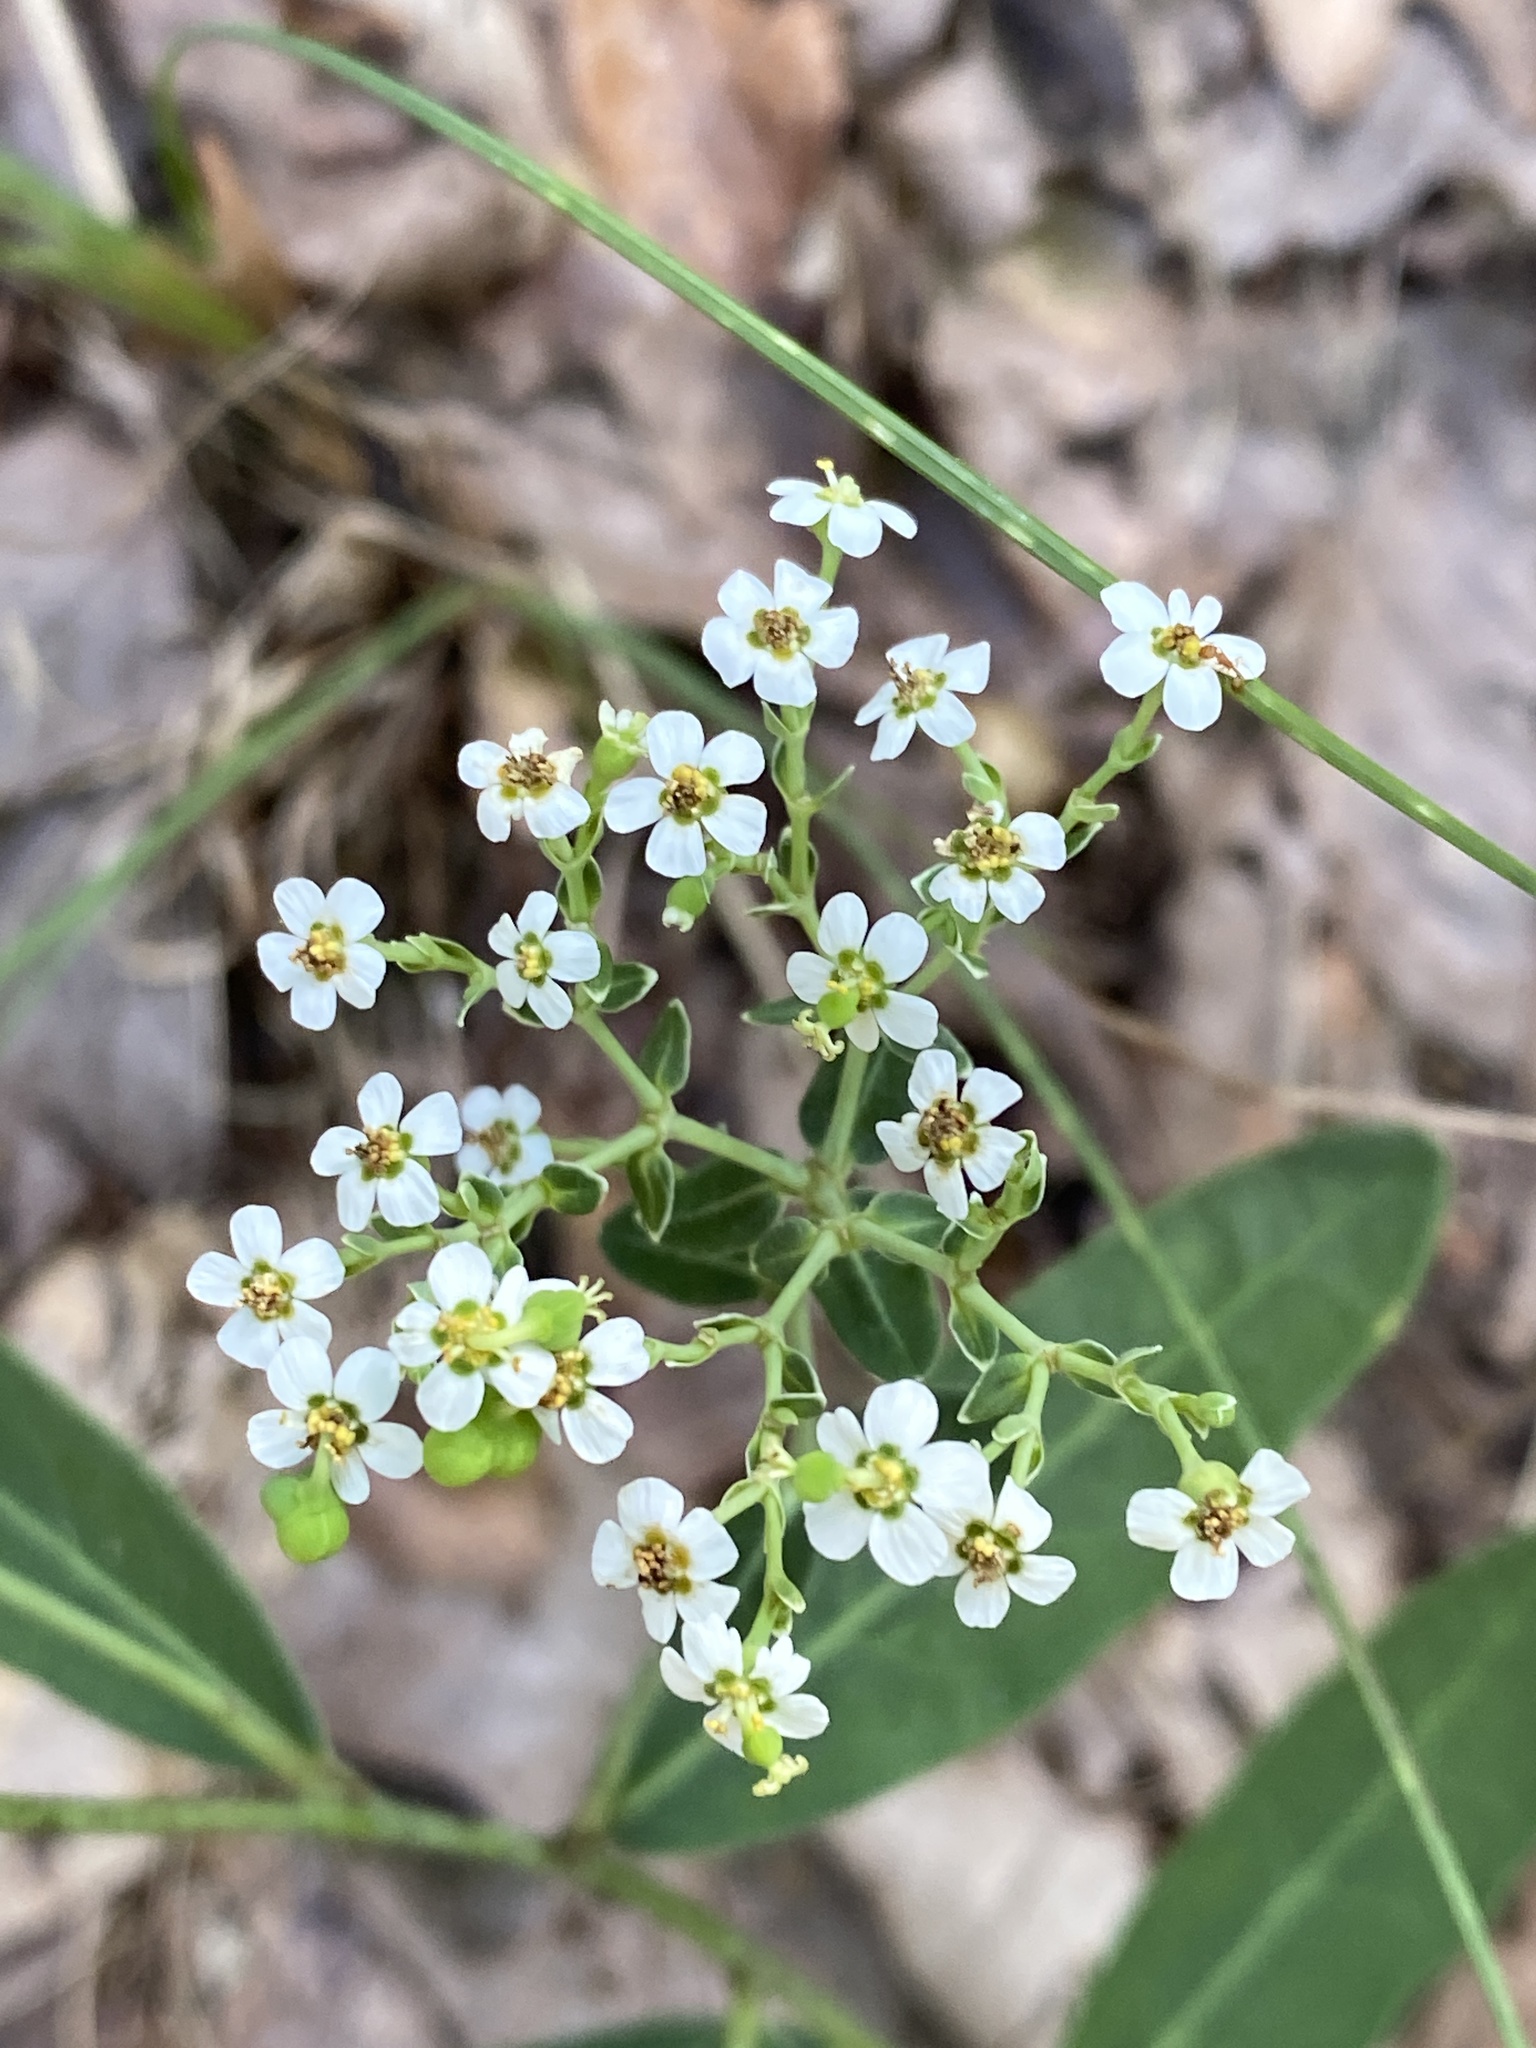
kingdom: Plantae
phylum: Tracheophyta
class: Magnoliopsida
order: Malpighiales
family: Euphorbiaceae
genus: Euphorbia
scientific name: Euphorbia corollata
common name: Flowering spurge
